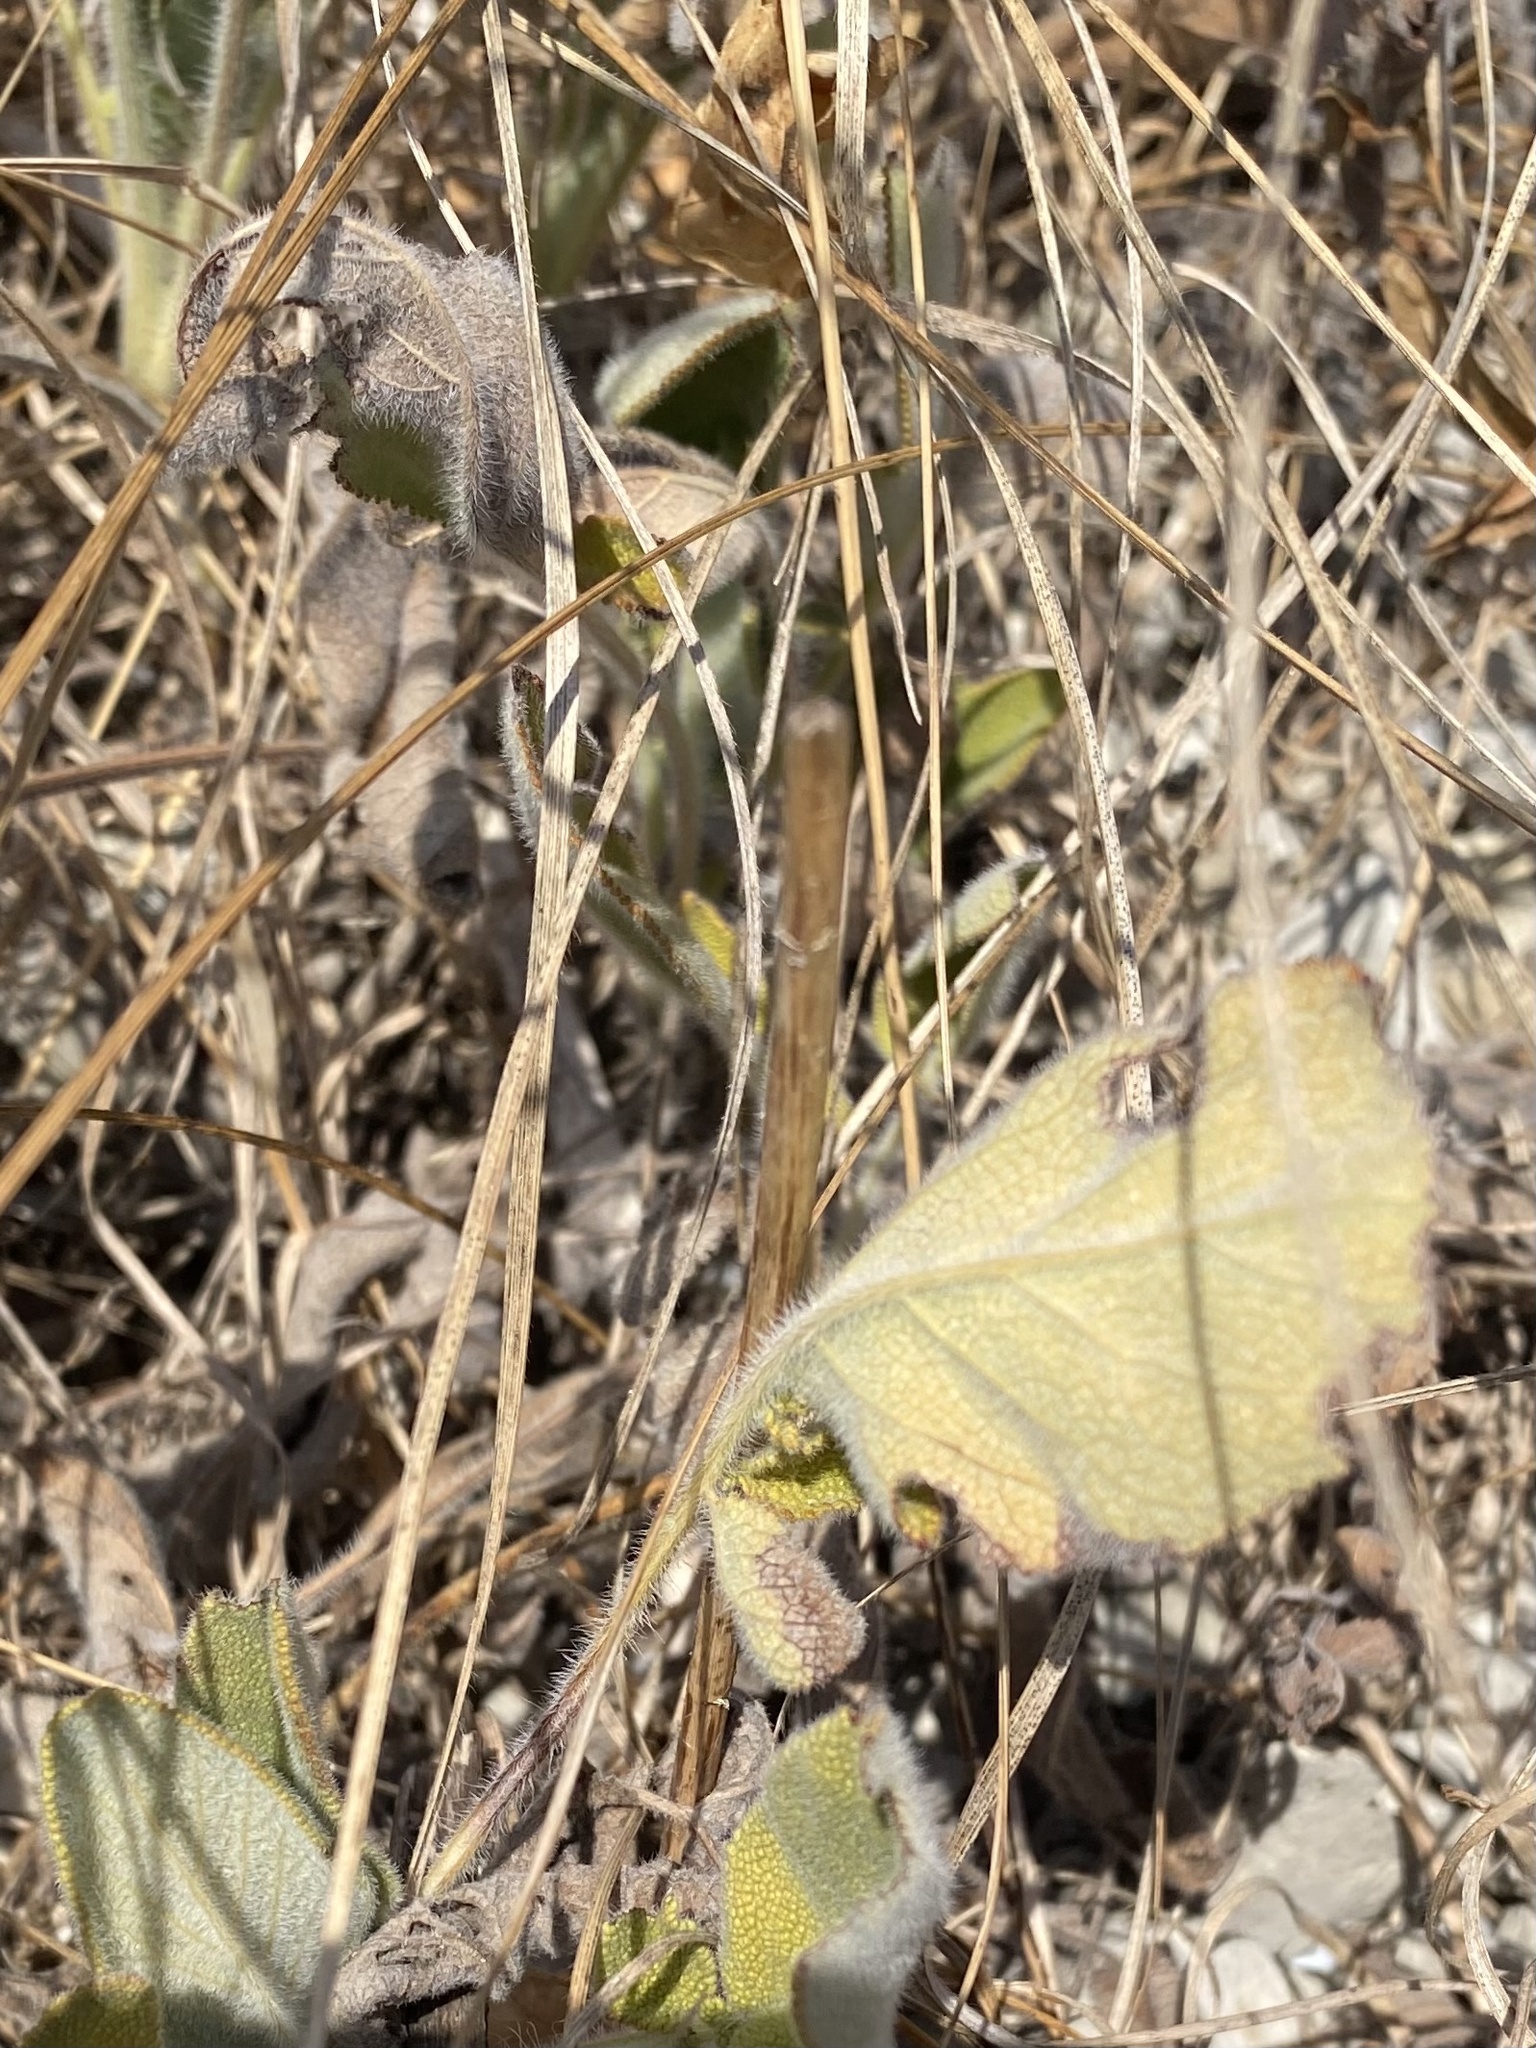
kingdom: Plantae
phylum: Tracheophyta
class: Magnoliopsida
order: Lamiales
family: Lamiaceae
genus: Salvia
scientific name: Salvia ringens
